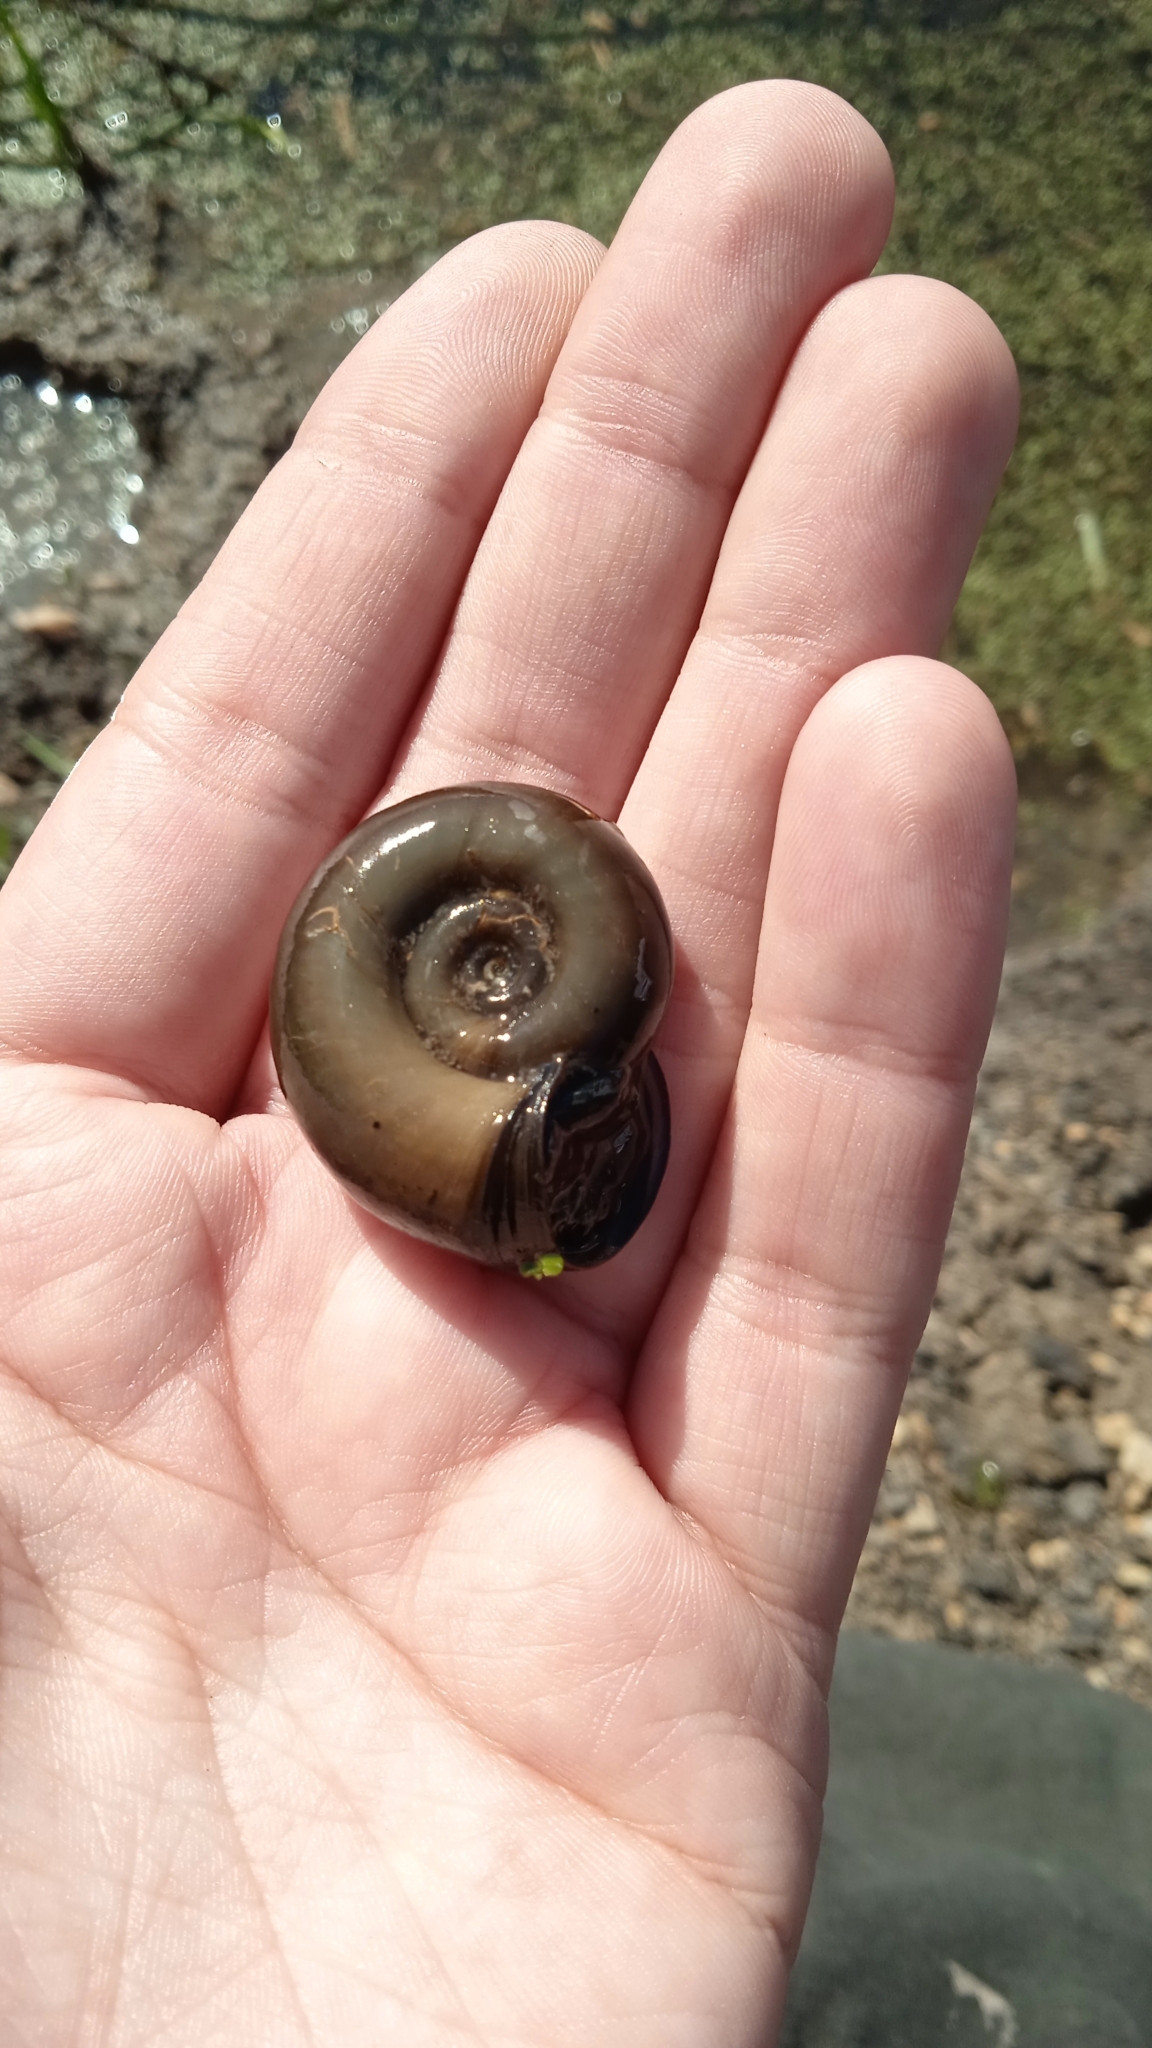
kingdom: Animalia
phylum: Mollusca
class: Gastropoda
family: Planorbidae
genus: Planorbarius
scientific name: Planorbarius corneus
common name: Great ramshorn
